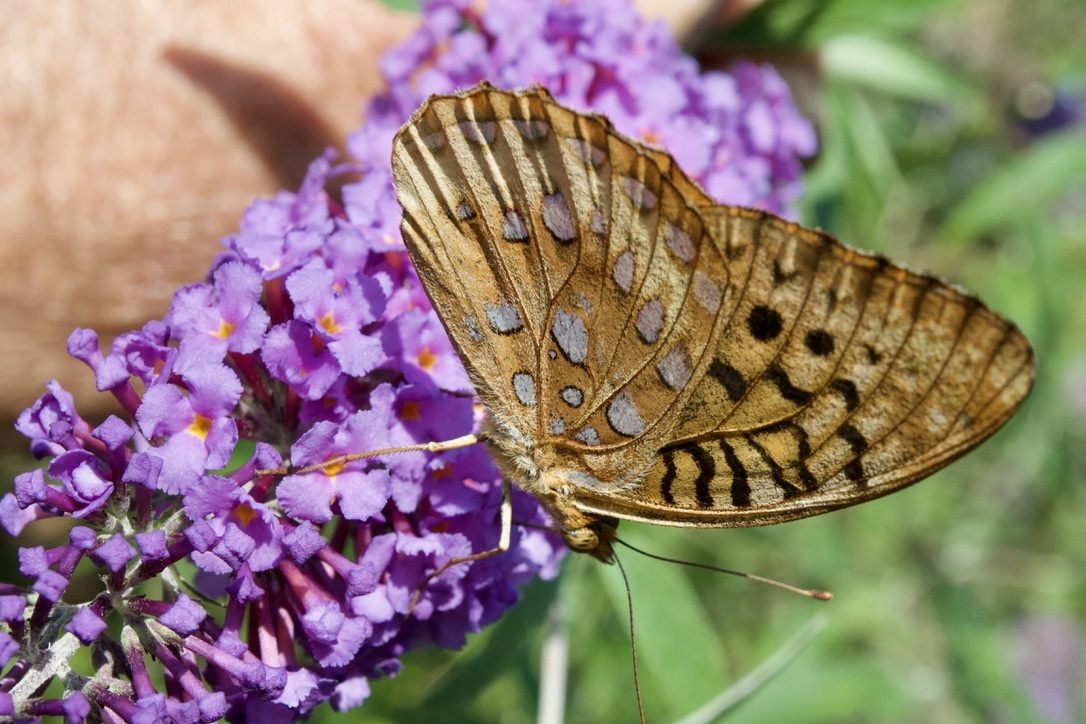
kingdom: Animalia
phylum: Arthropoda
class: Insecta
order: Lepidoptera
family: Nymphalidae
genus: Speyeria
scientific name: Speyeria cybele
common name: Great spangled fritillary
